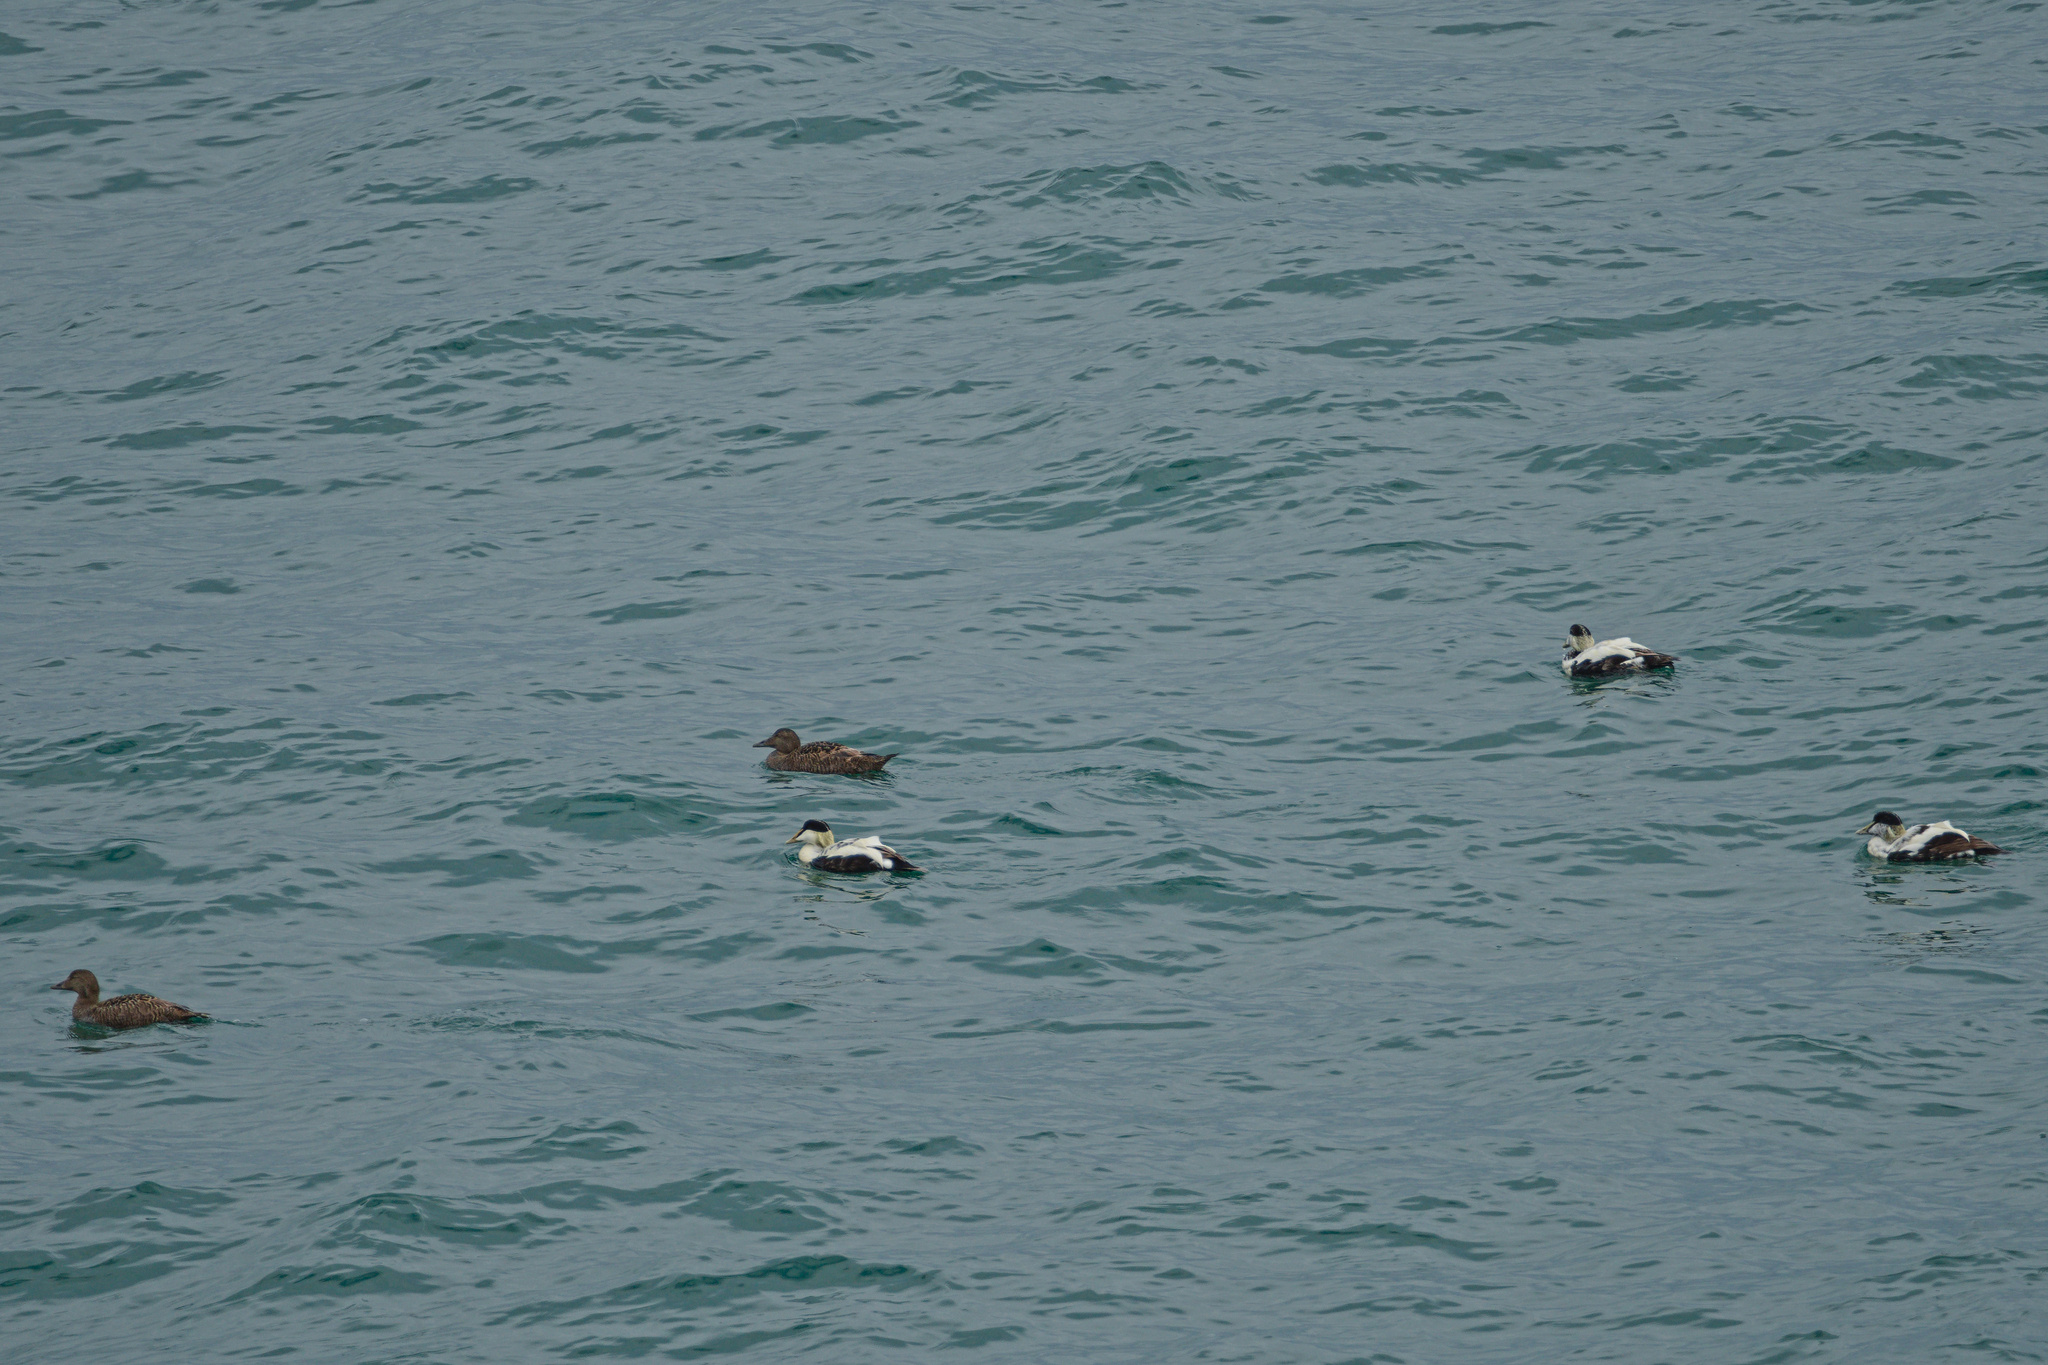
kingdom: Animalia
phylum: Chordata
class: Aves
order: Anseriformes
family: Anatidae
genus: Somateria
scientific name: Somateria mollissima
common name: Common eider
